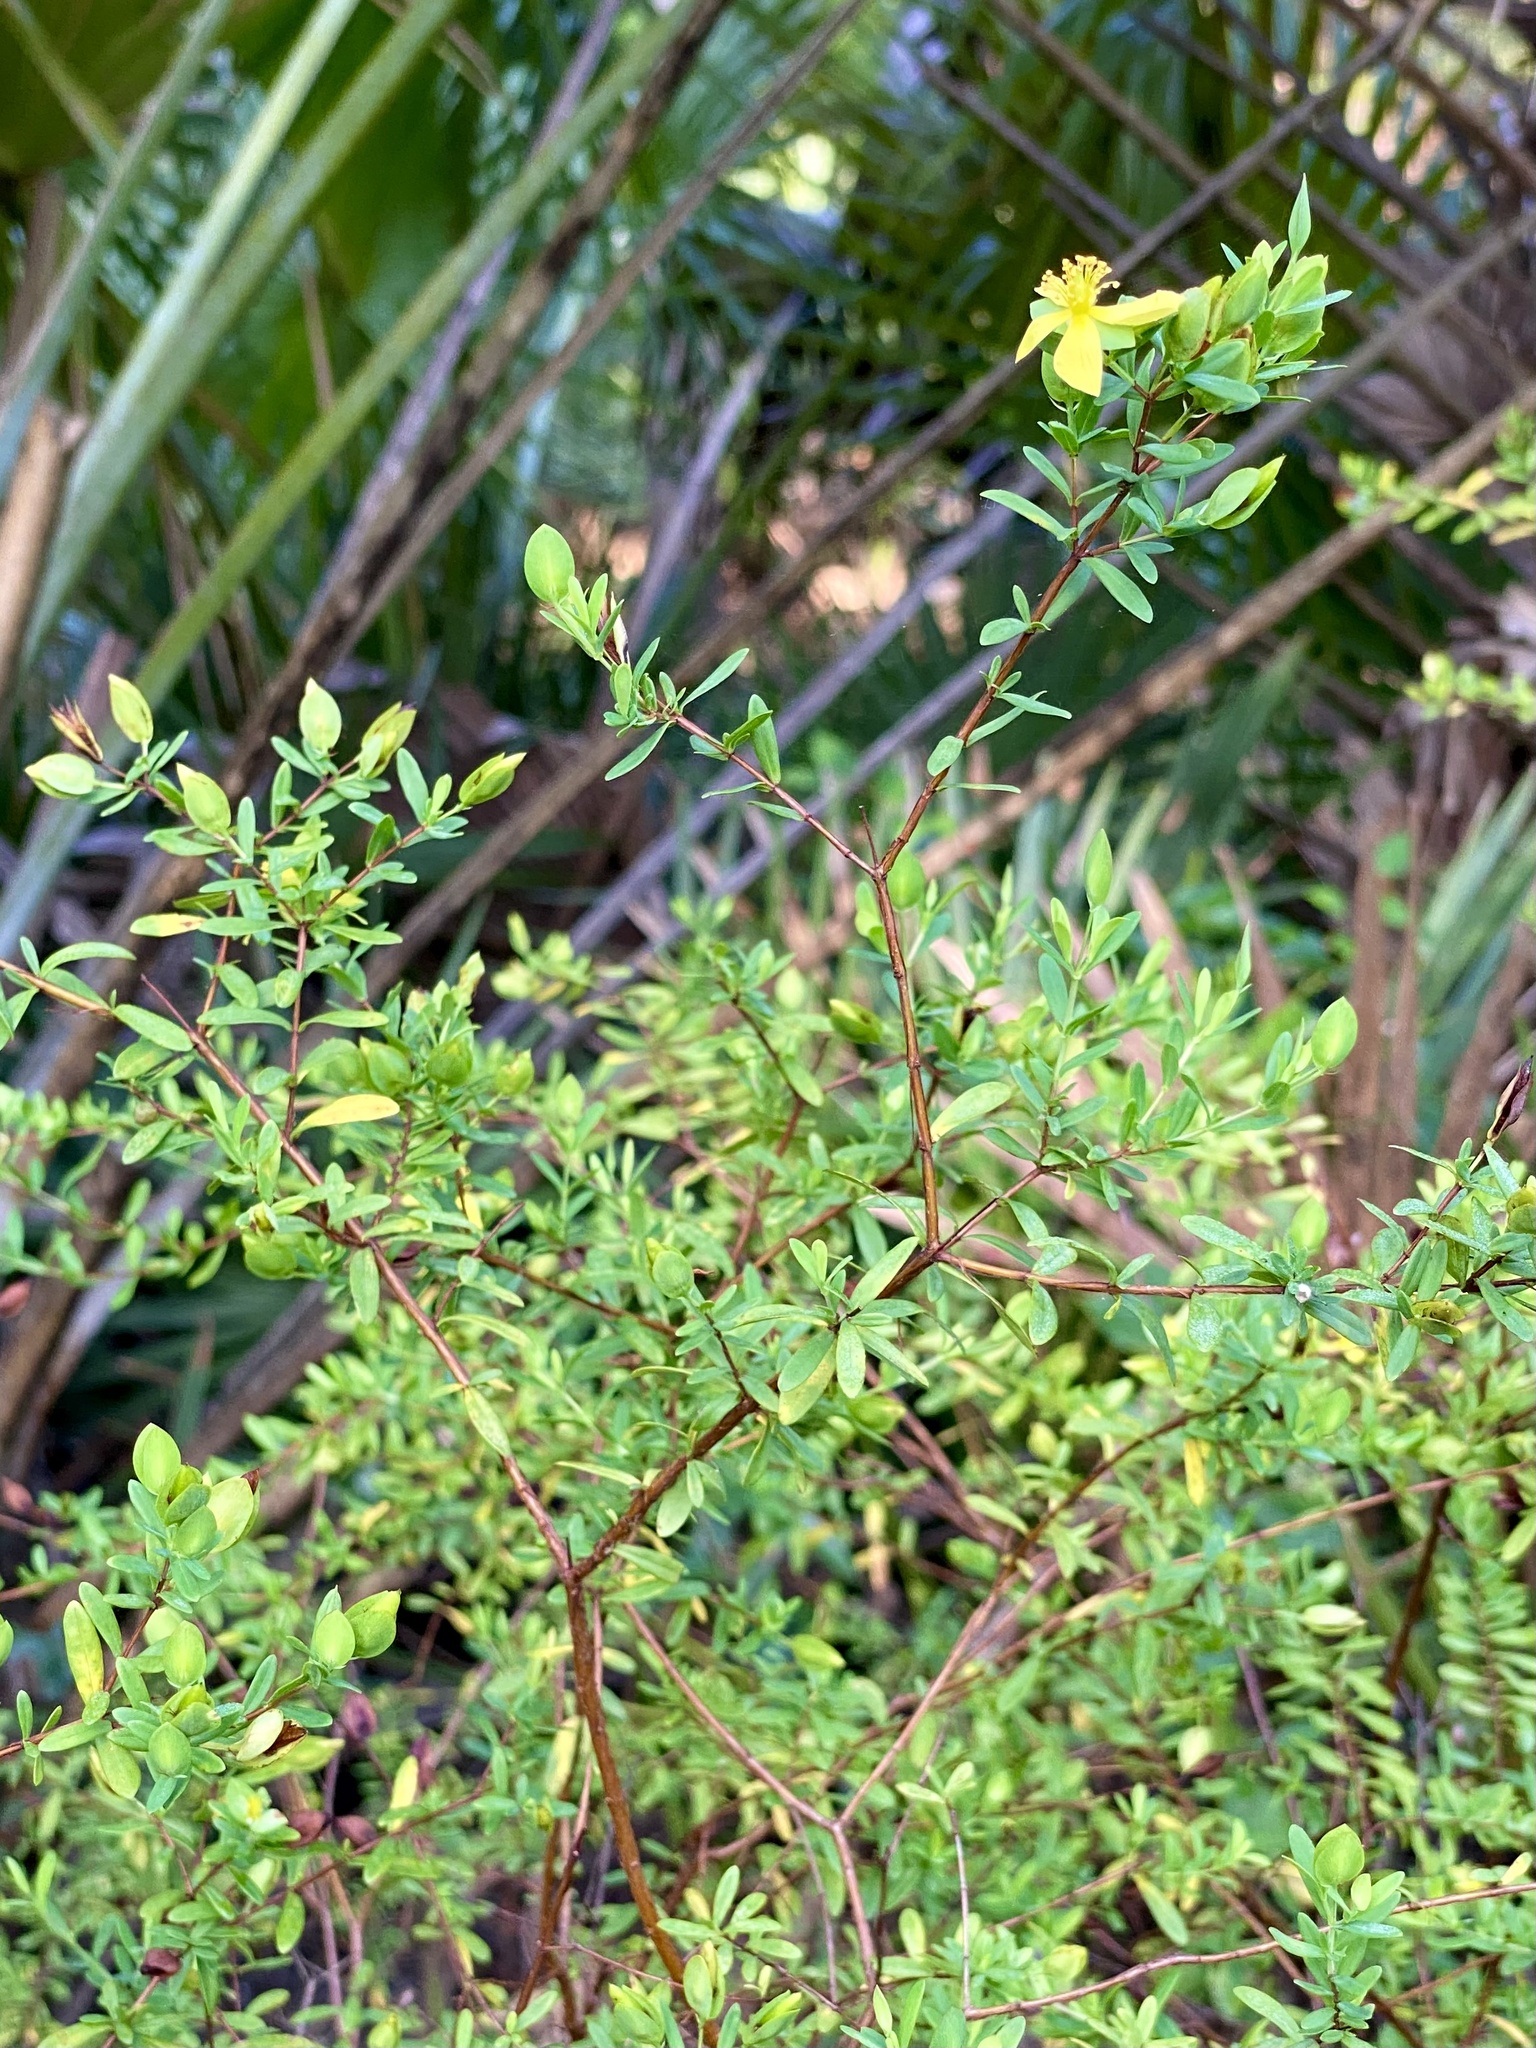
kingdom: Plantae
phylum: Tracheophyta
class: Magnoliopsida
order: Malpighiales
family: Hypericaceae
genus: Hypericum
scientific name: Hypericum hypericoides
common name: St. andrew's cross
